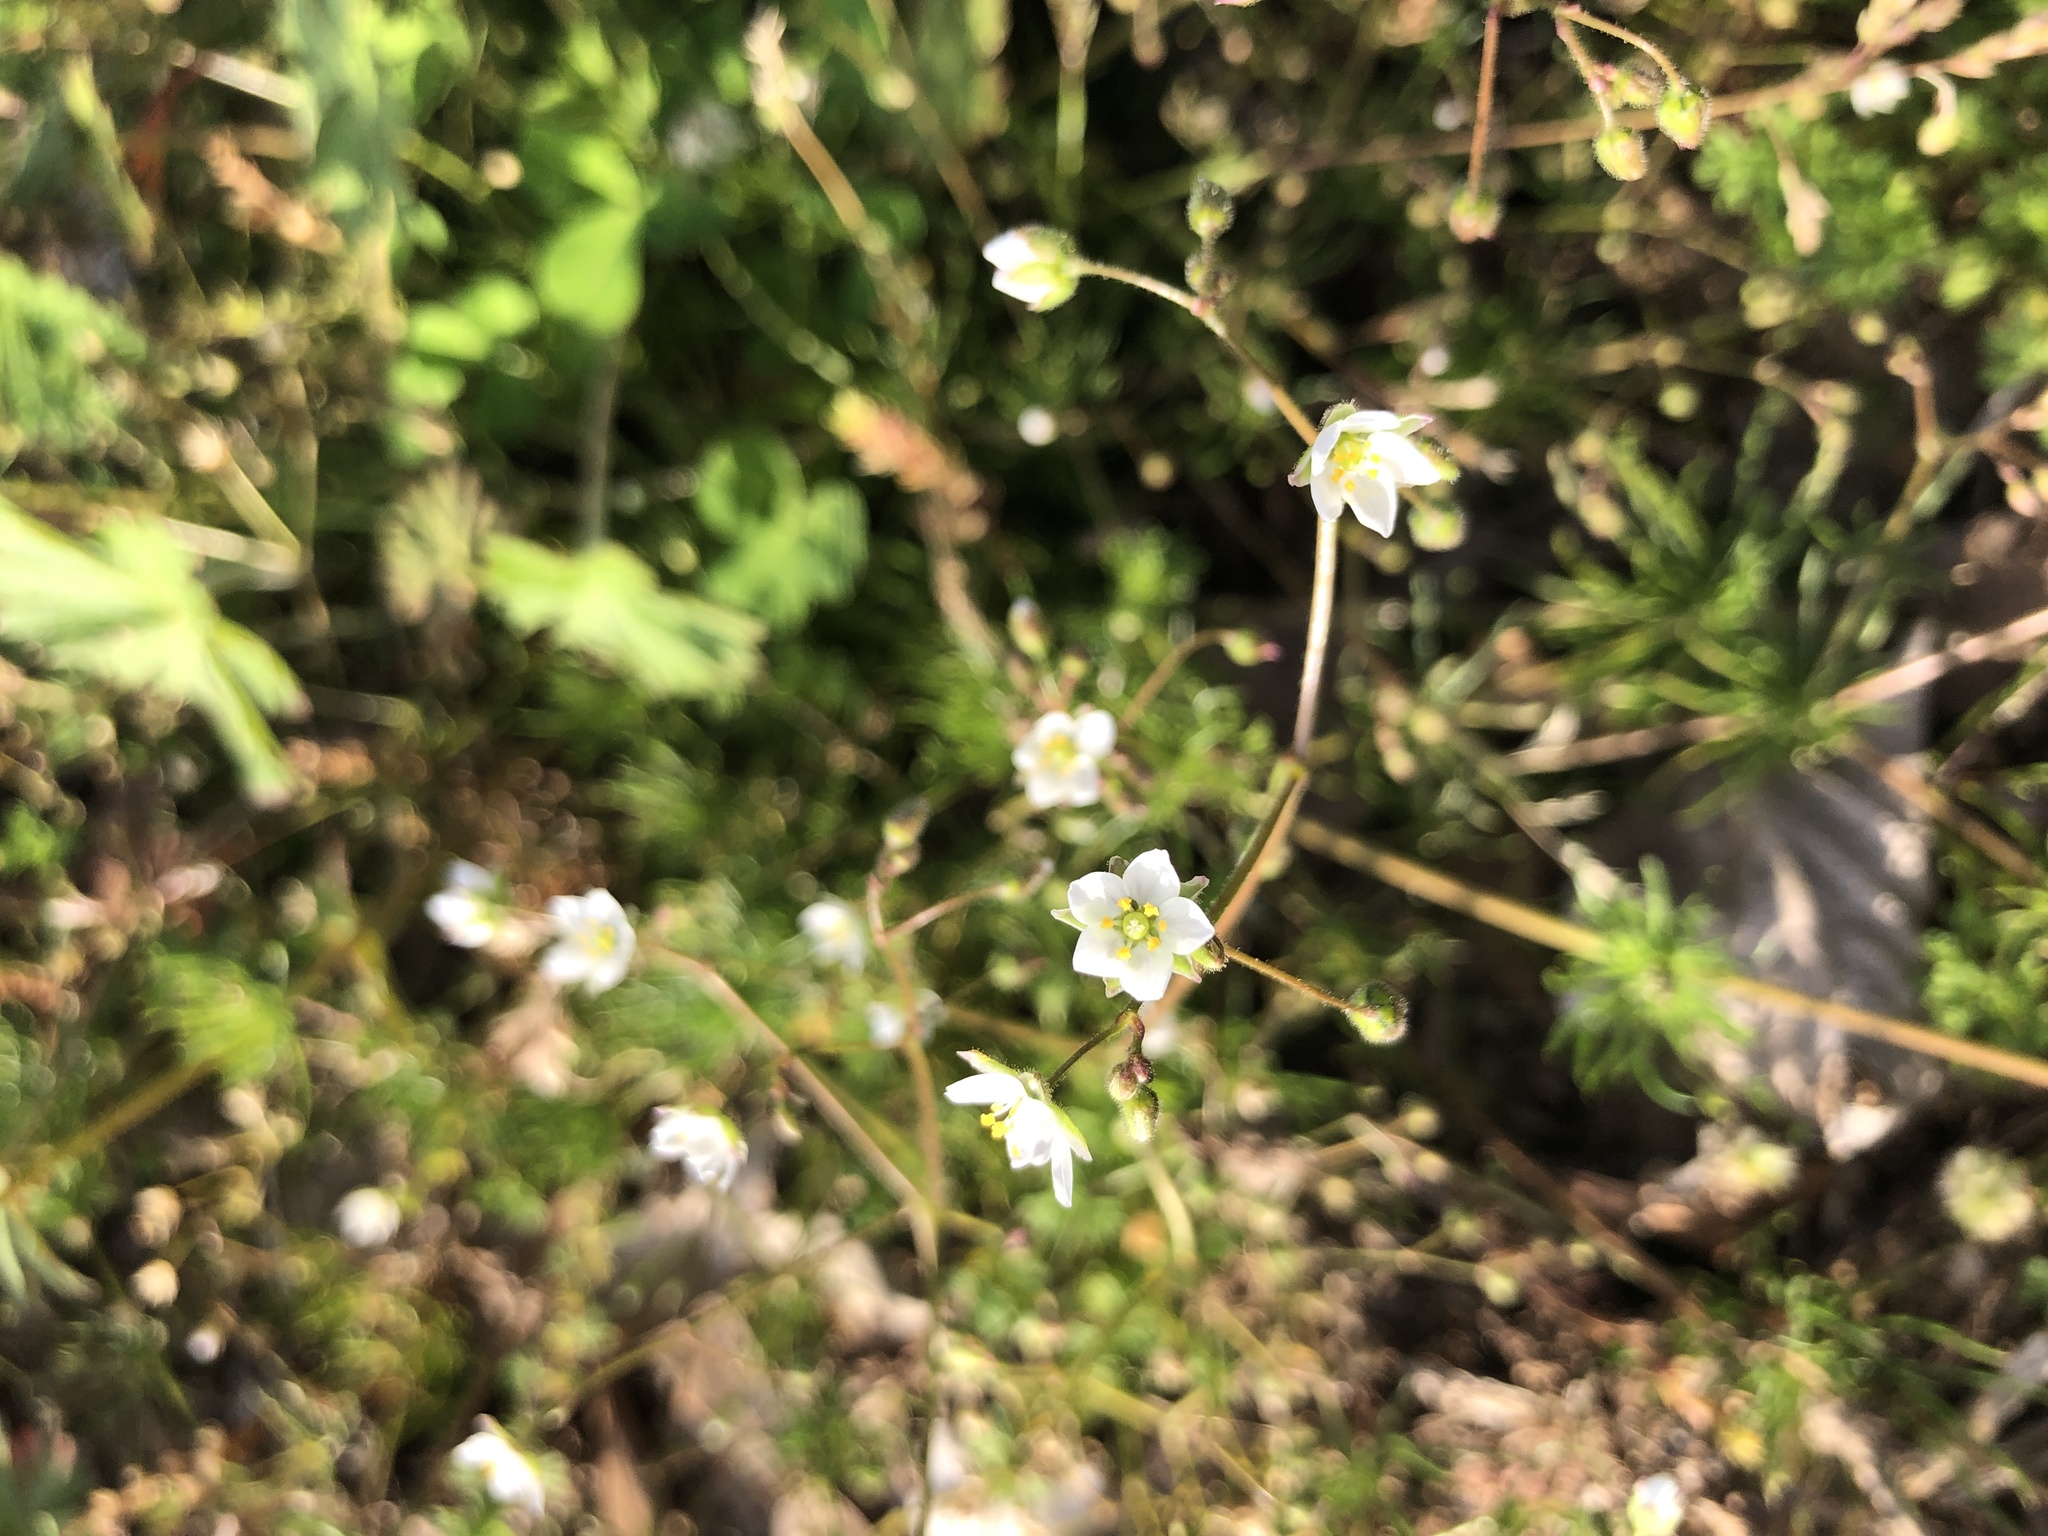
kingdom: Plantae
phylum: Tracheophyta
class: Magnoliopsida
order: Caryophyllales
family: Caryophyllaceae
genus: Spergula
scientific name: Spergula arvensis
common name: Corn spurrey
